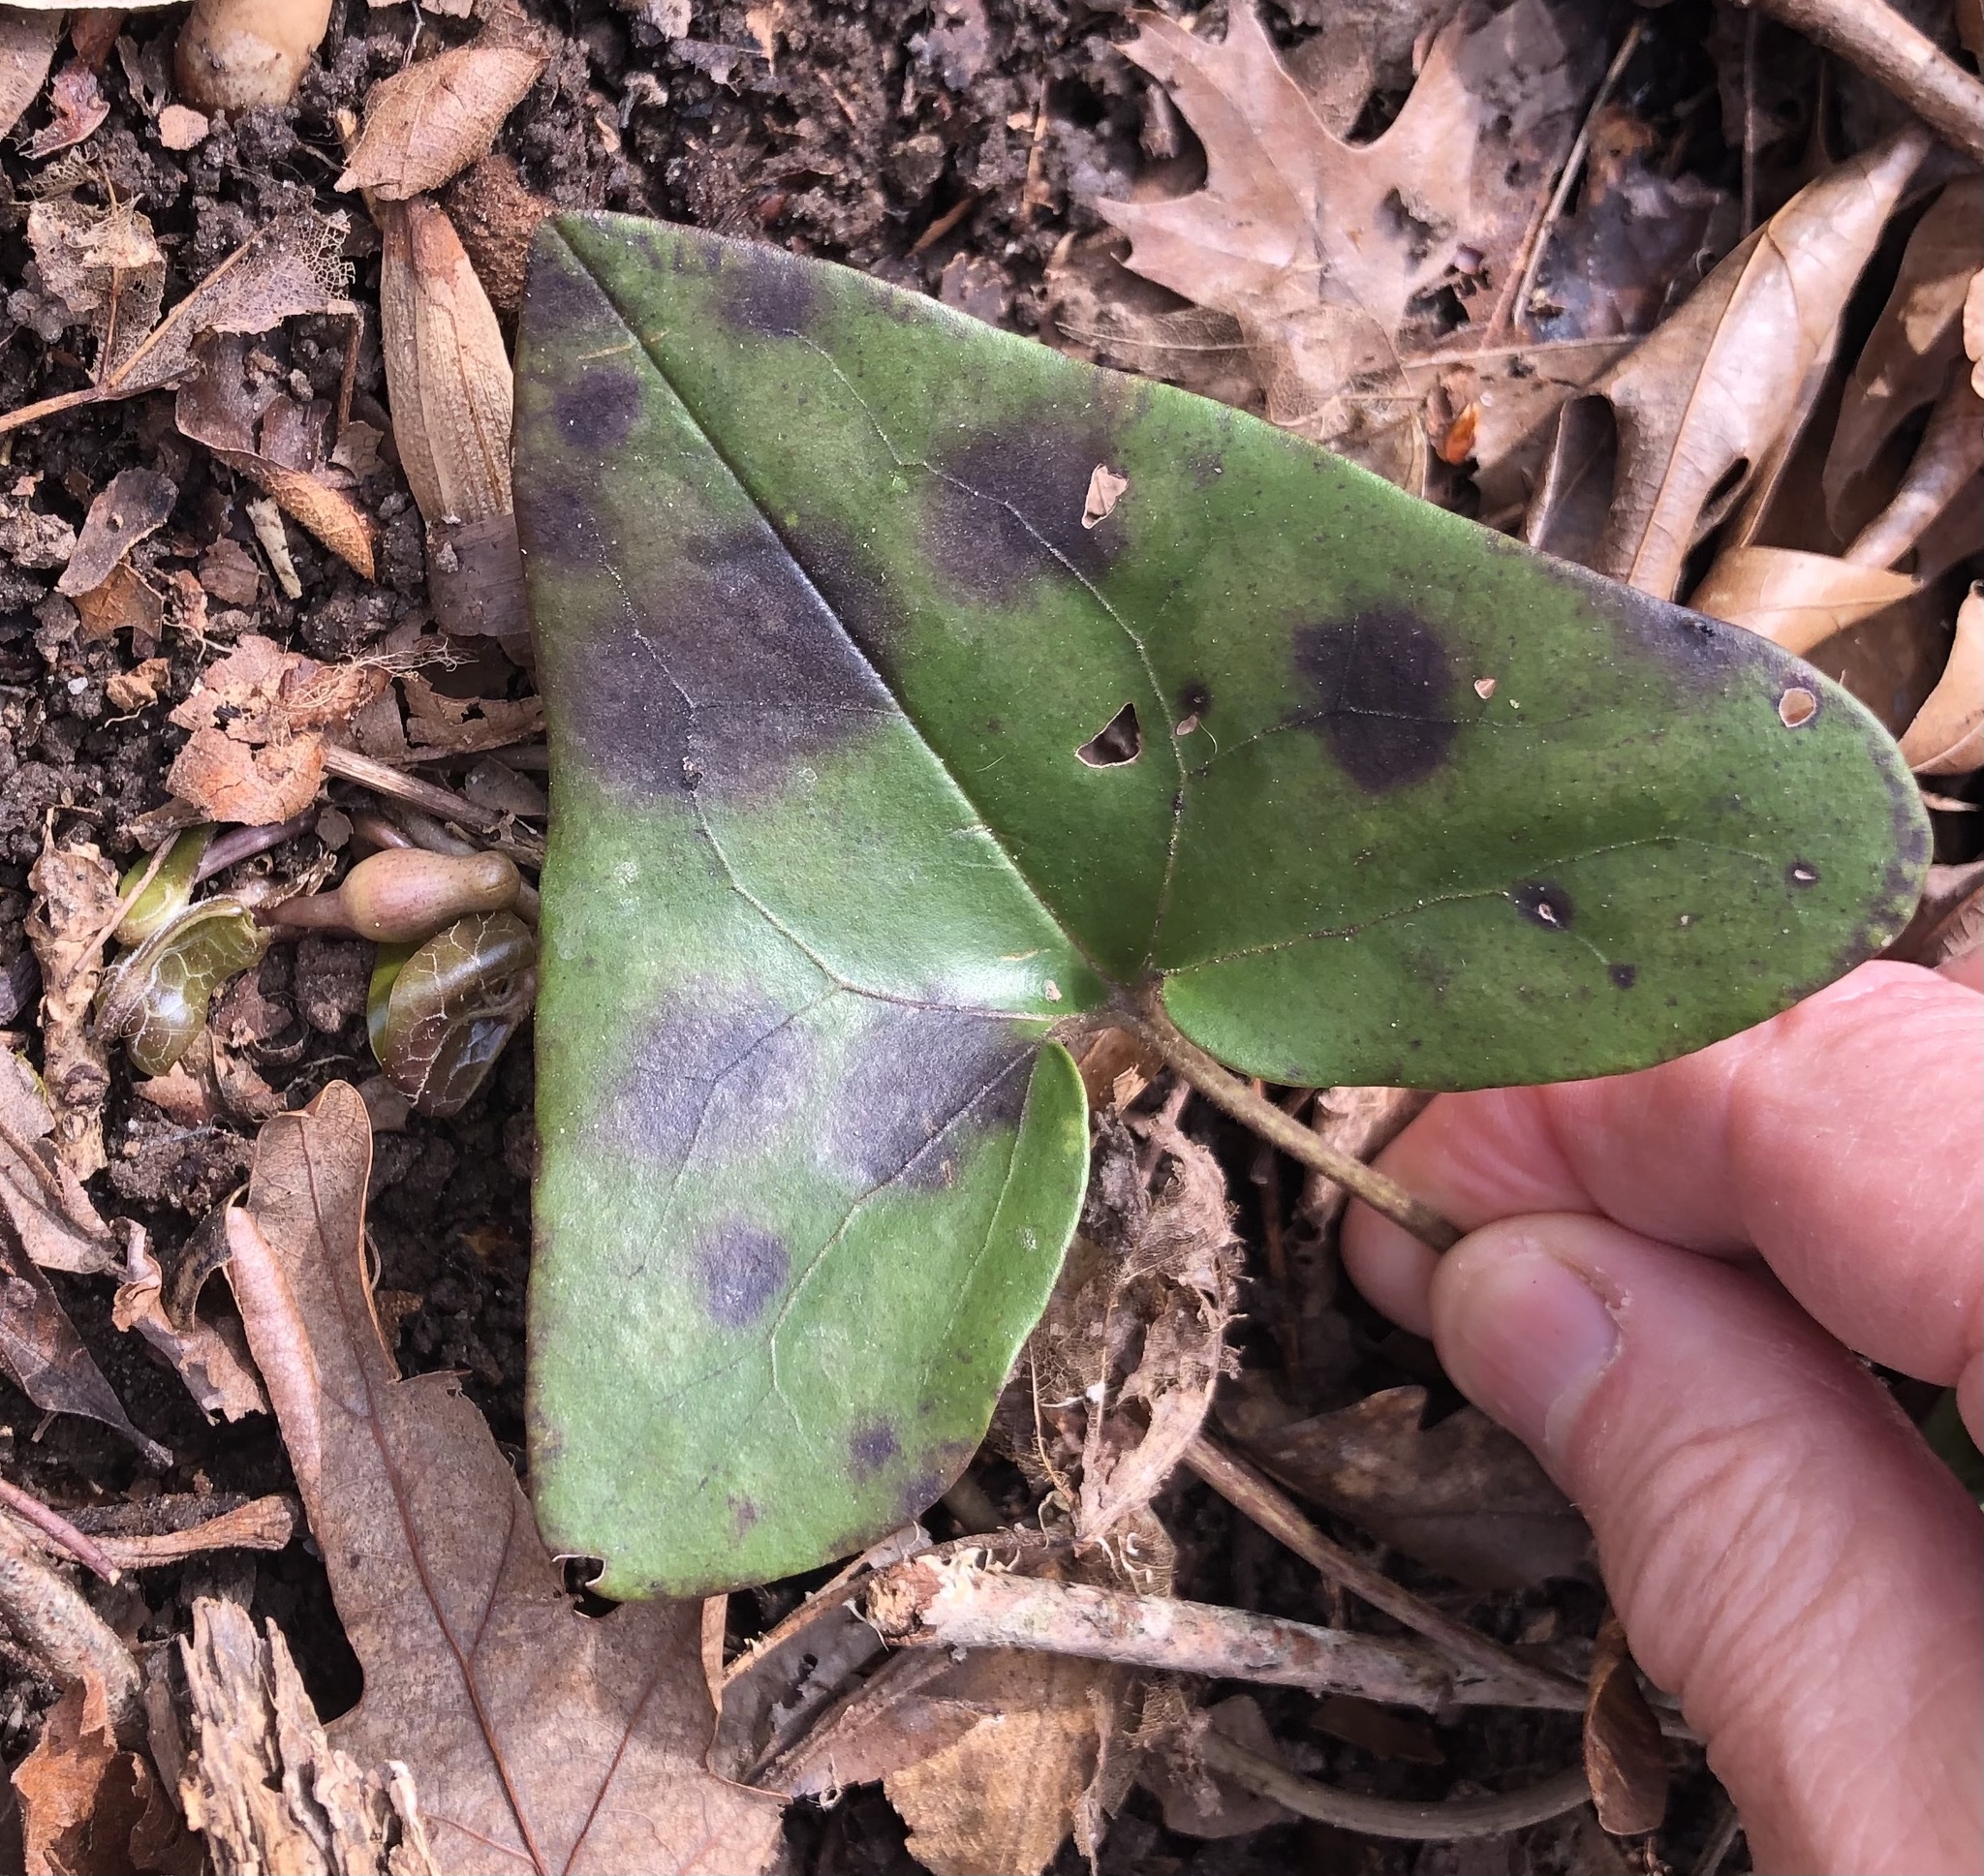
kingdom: Plantae
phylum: Tracheophyta
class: Magnoliopsida
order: Piperales
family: Aristolochiaceae
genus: Hexastylis
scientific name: Hexastylis arifolia
